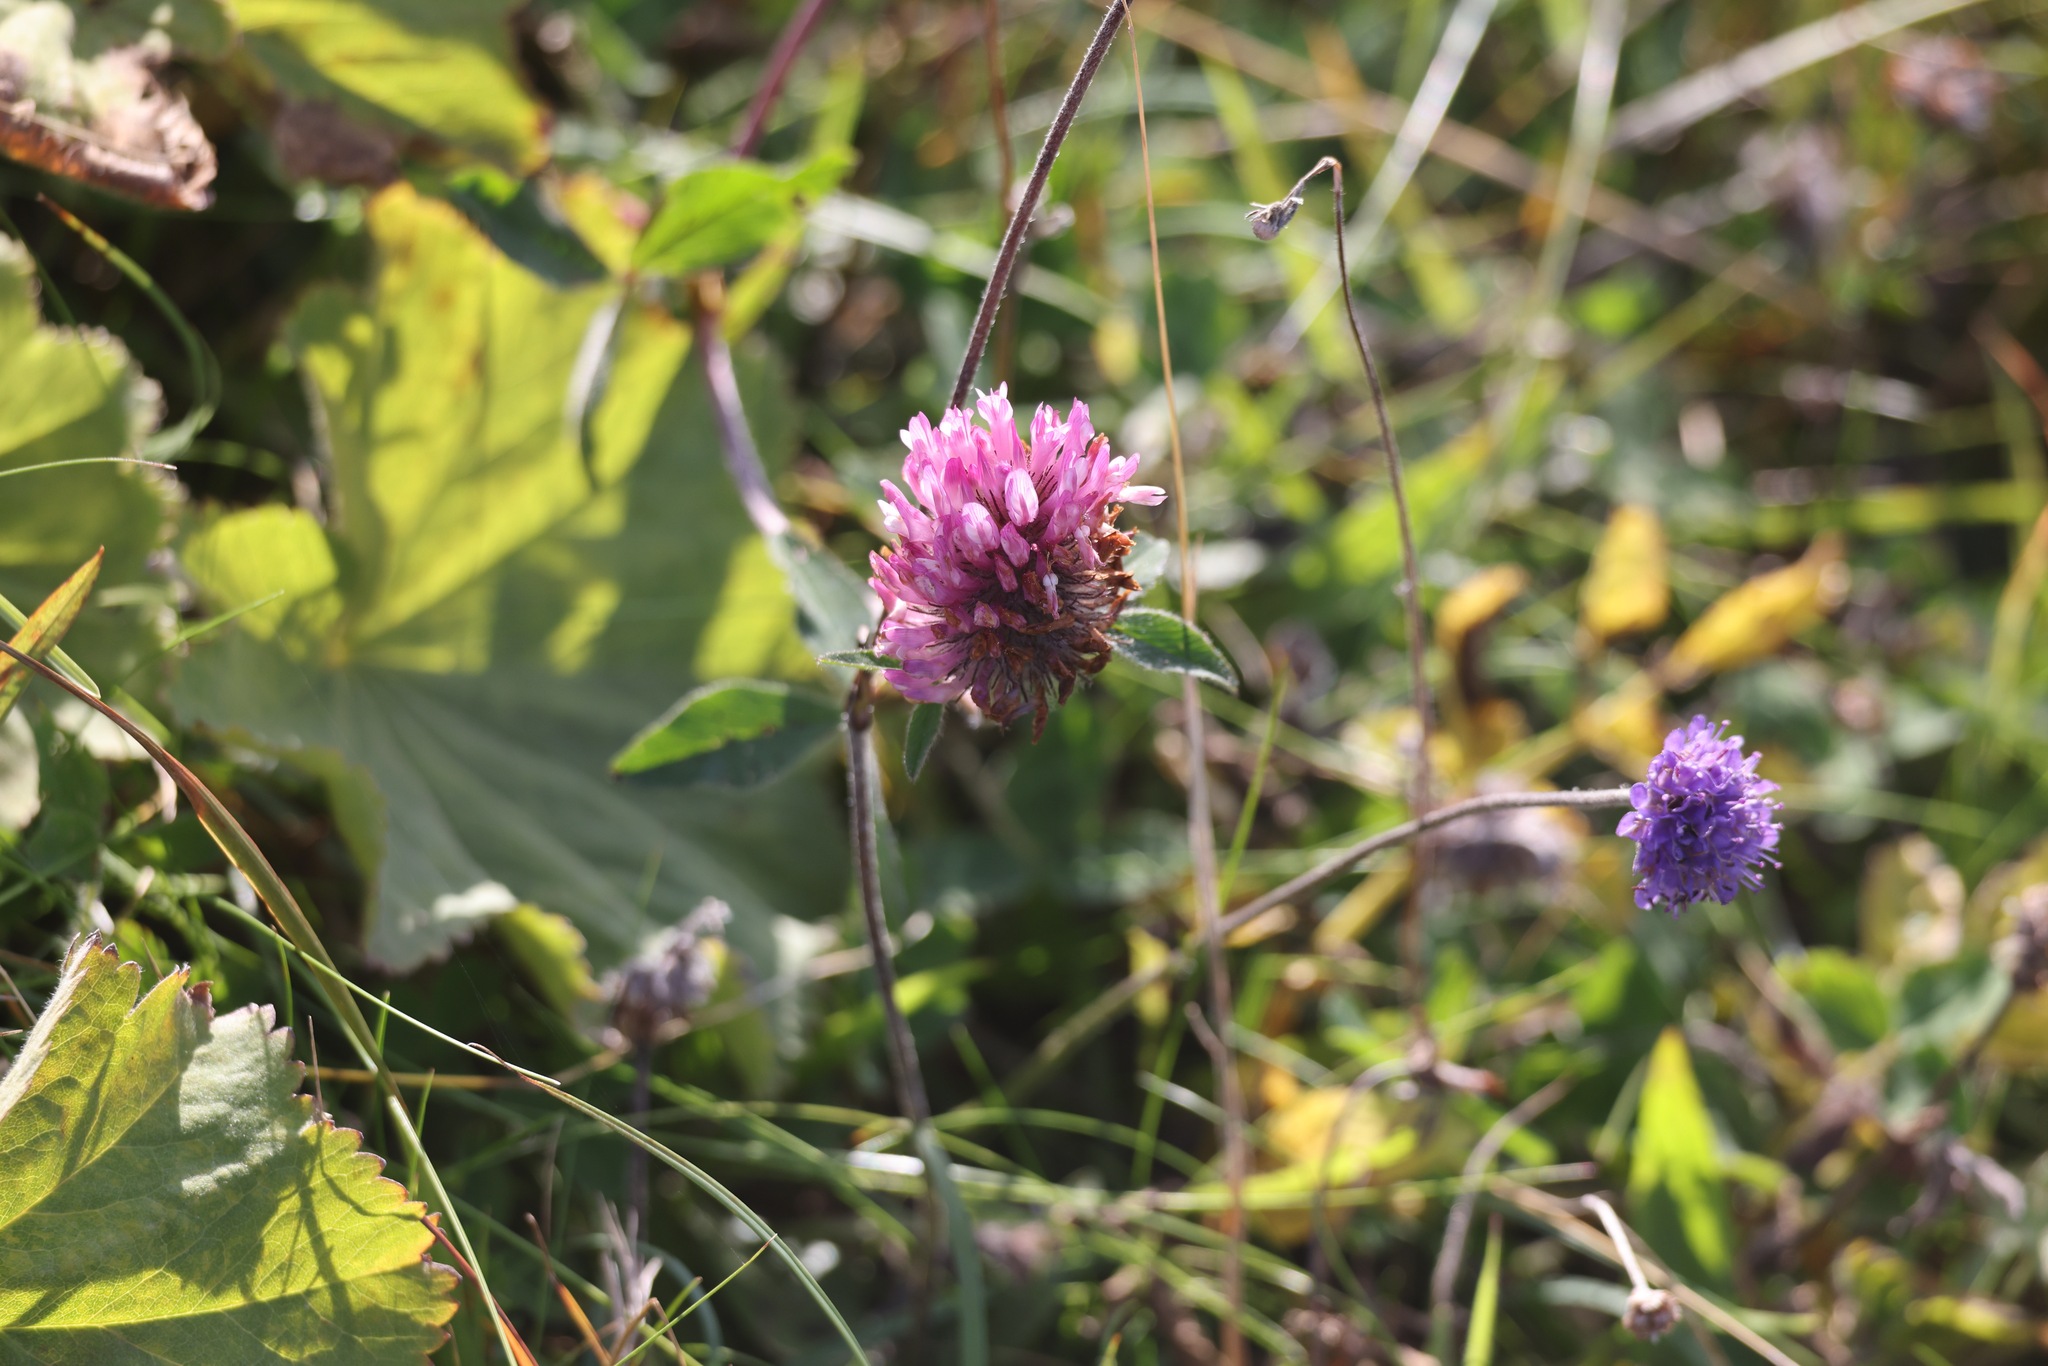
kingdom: Plantae
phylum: Tracheophyta
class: Magnoliopsida
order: Fabales
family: Fabaceae
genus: Trifolium
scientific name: Trifolium pratense
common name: Red clover
